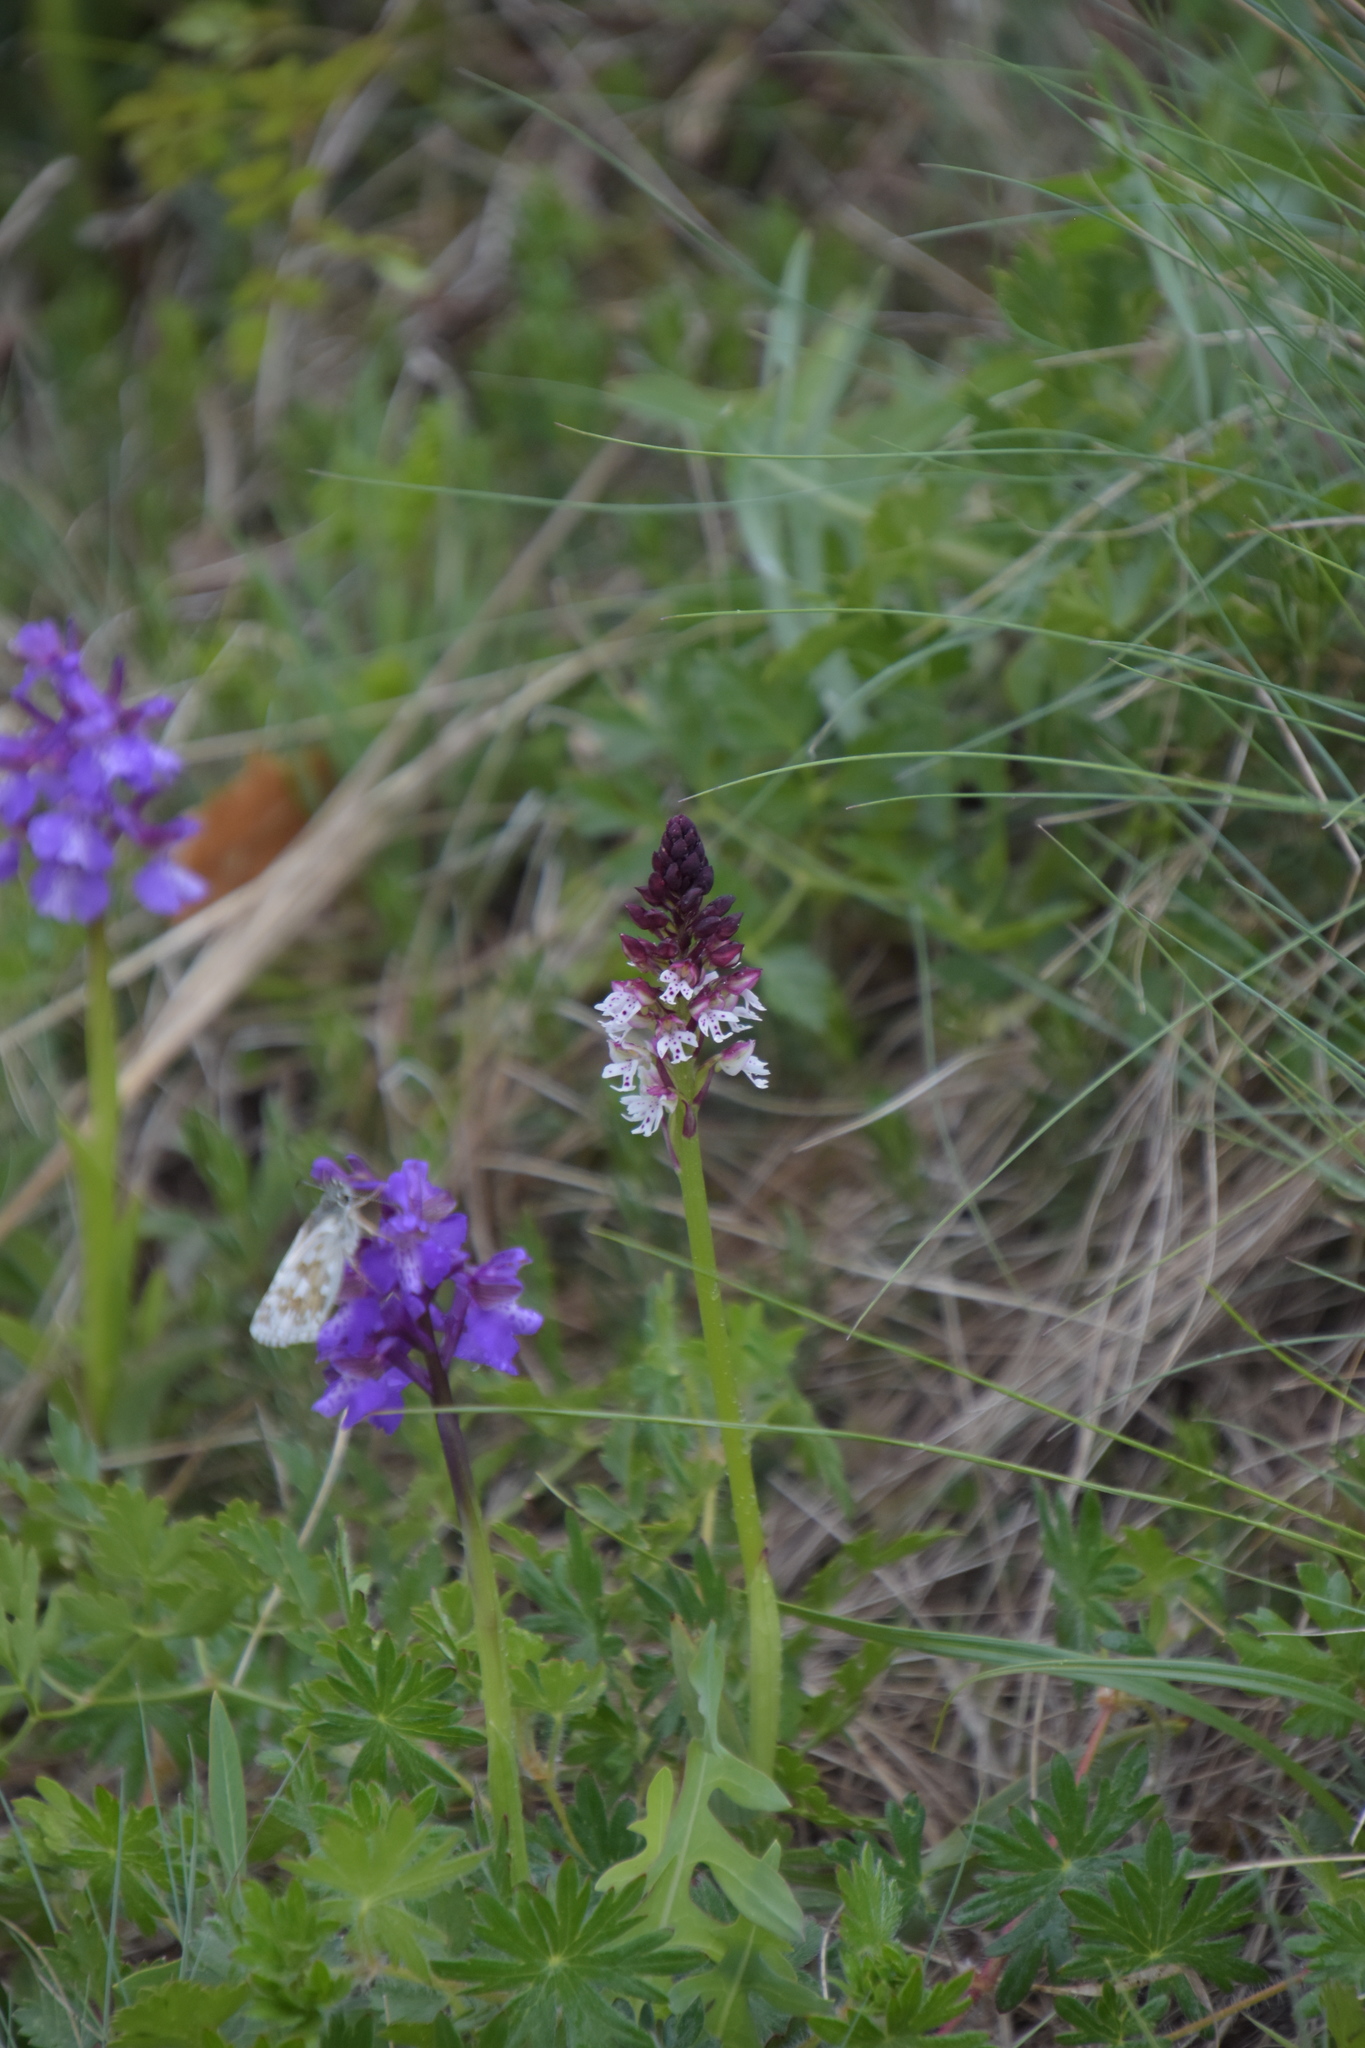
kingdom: Plantae
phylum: Tracheophyta
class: Liliopsida
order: Asparagales
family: Orchidaceae
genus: Neotinea
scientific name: Neotinea ustulata
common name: Burnt orchid
